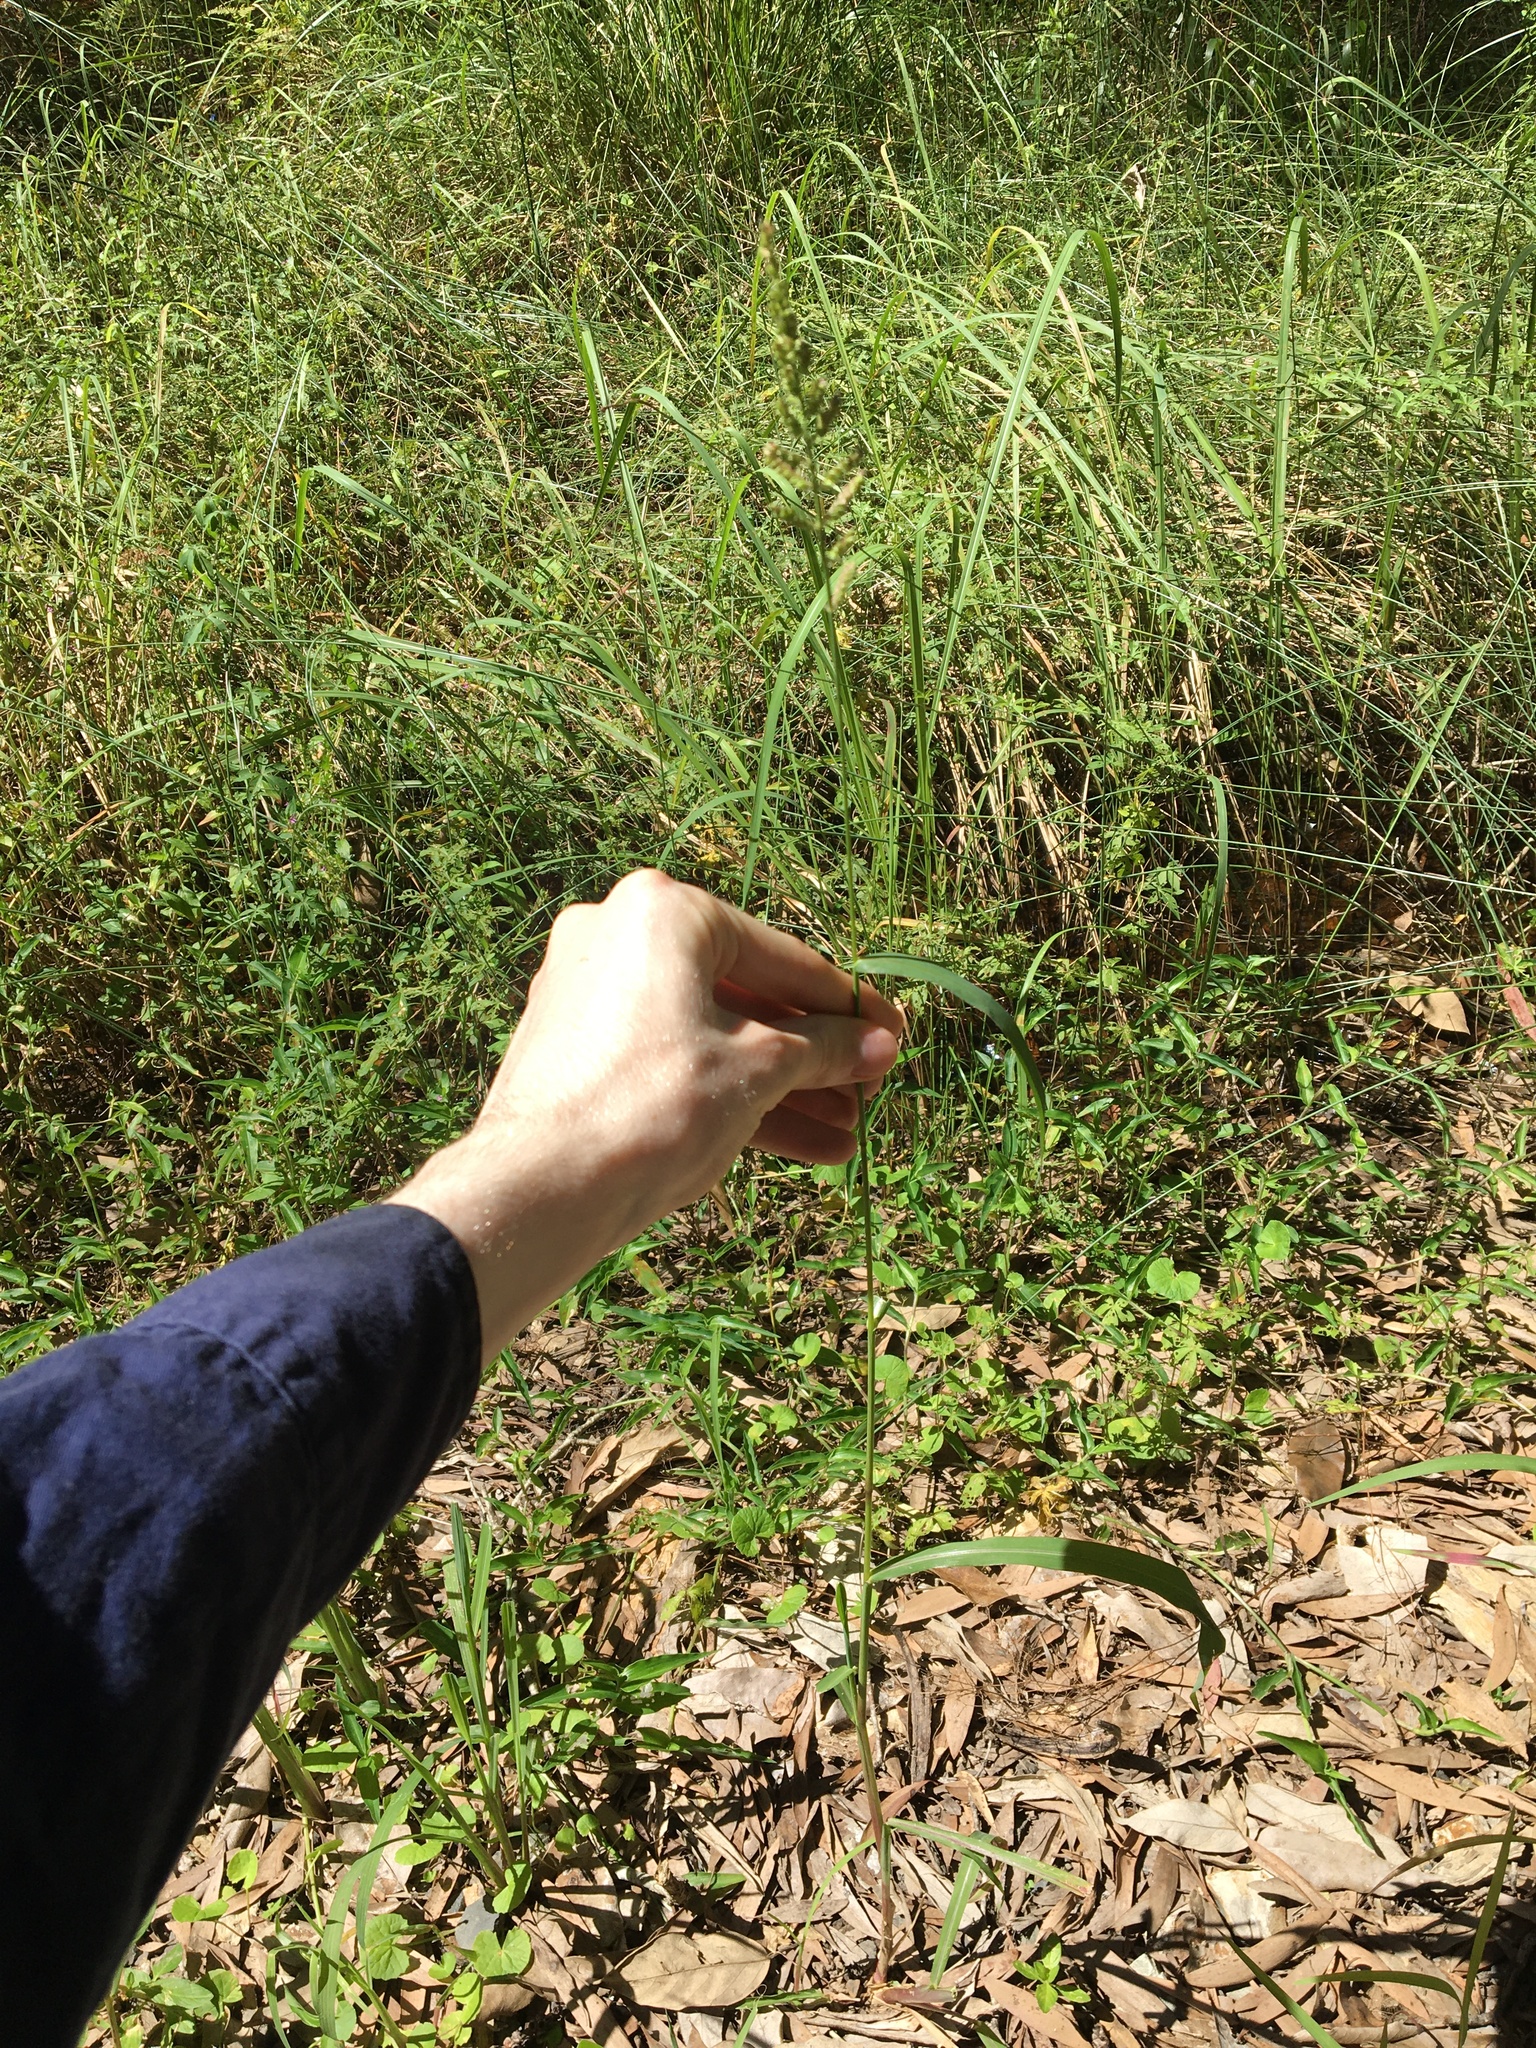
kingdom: Plantae
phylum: Tracheophyta
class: Liliopsida
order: Poales
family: Poaceae
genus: Echinochloa
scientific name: Echinochloa crus-galli
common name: Cockspur
